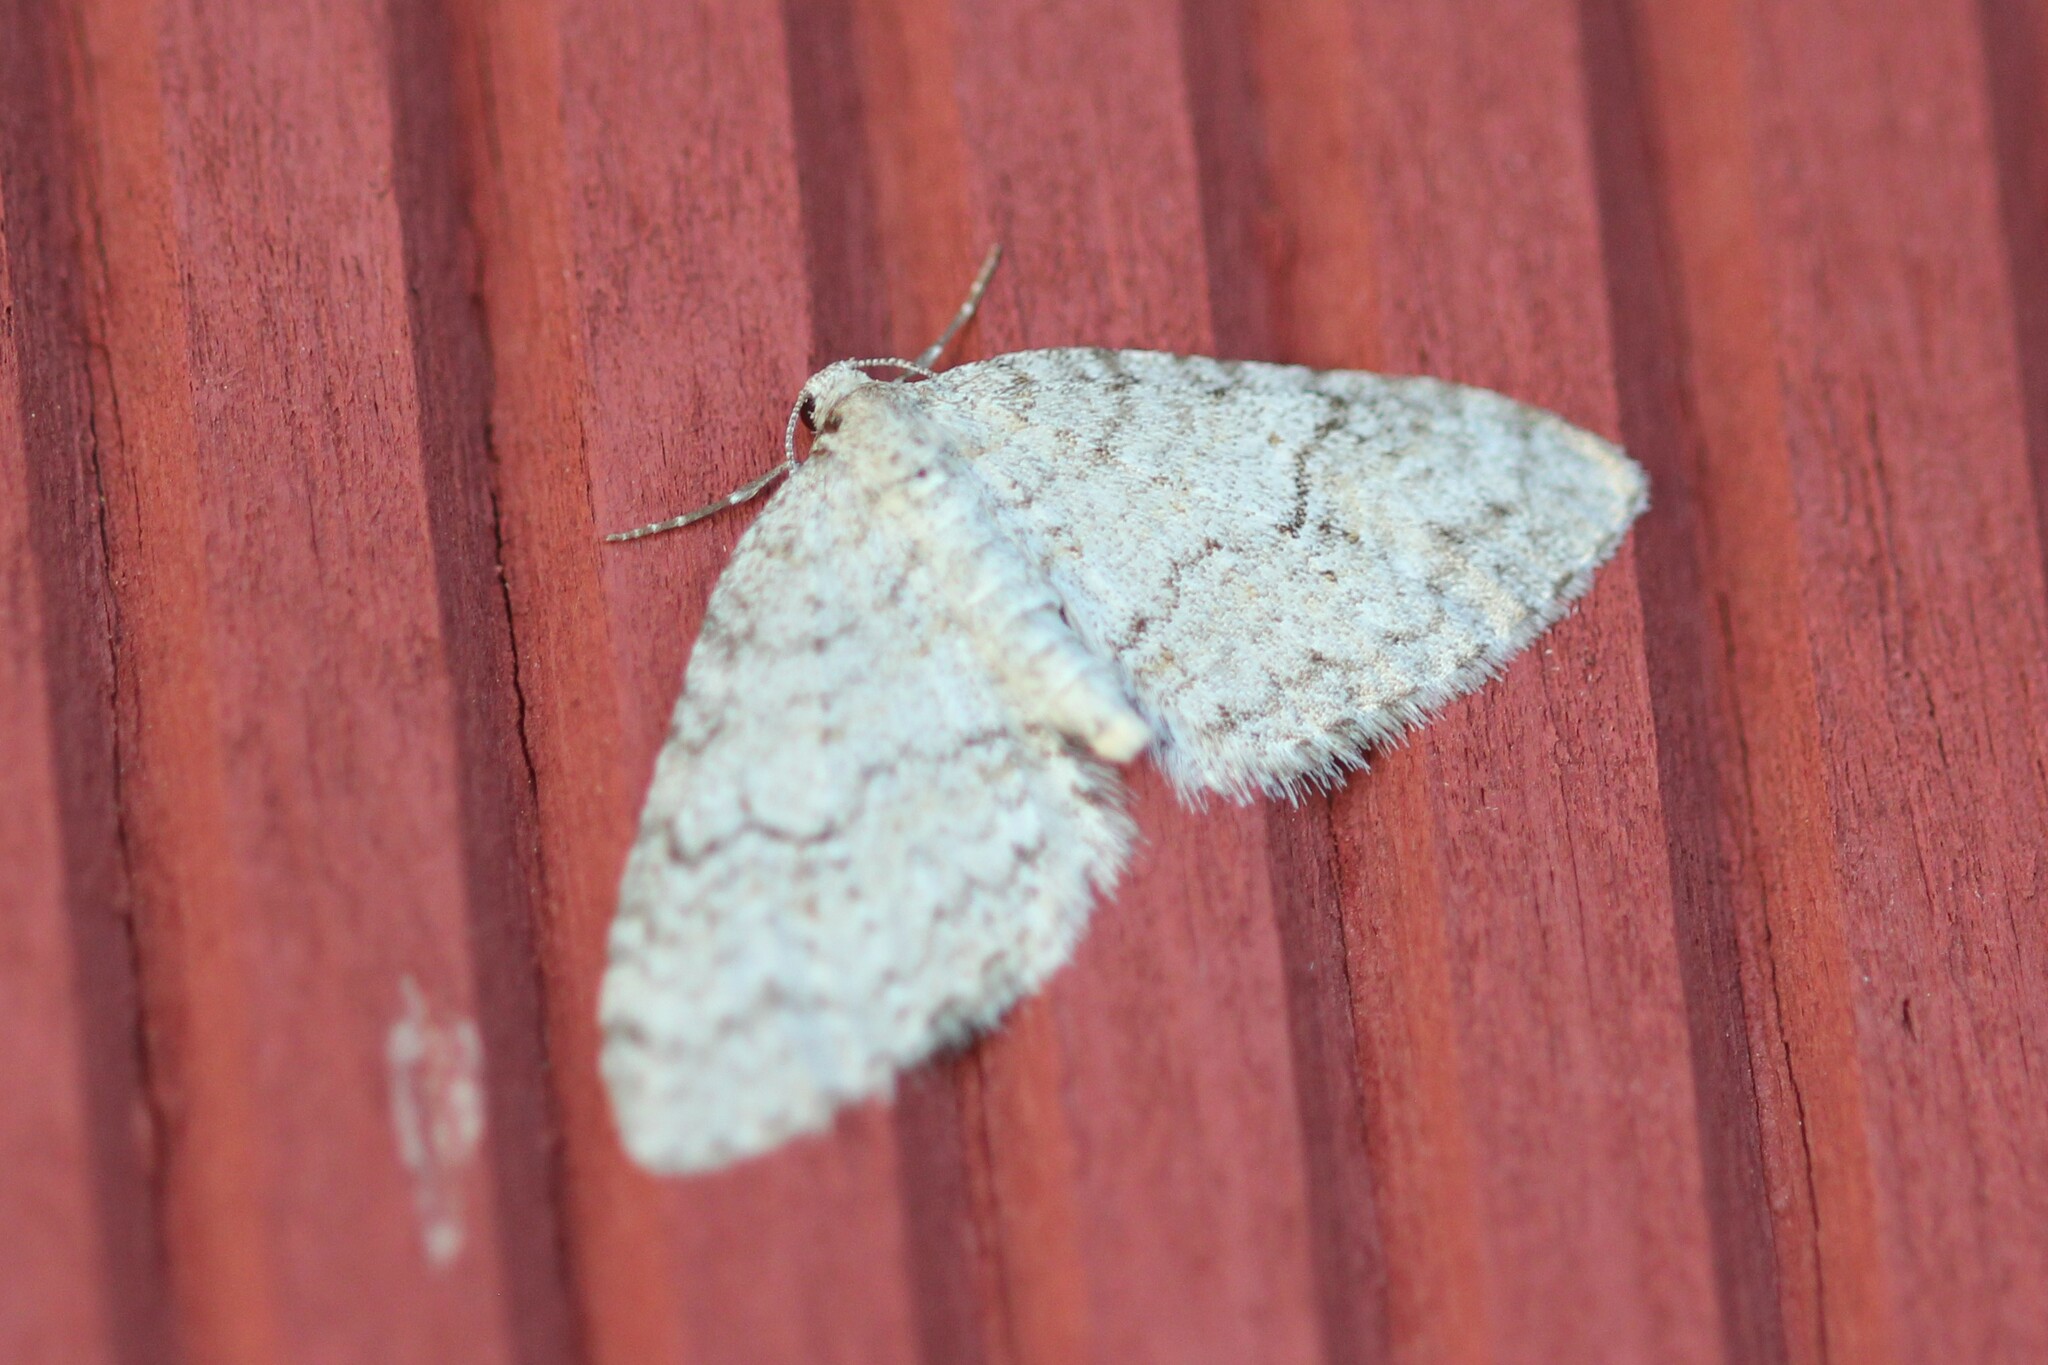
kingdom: Animalia
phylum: Arthropoda
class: Insecta
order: Lepidoptera
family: Geometridae
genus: Venusia
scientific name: Venusia comptaria
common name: Brown-shaded carpet
